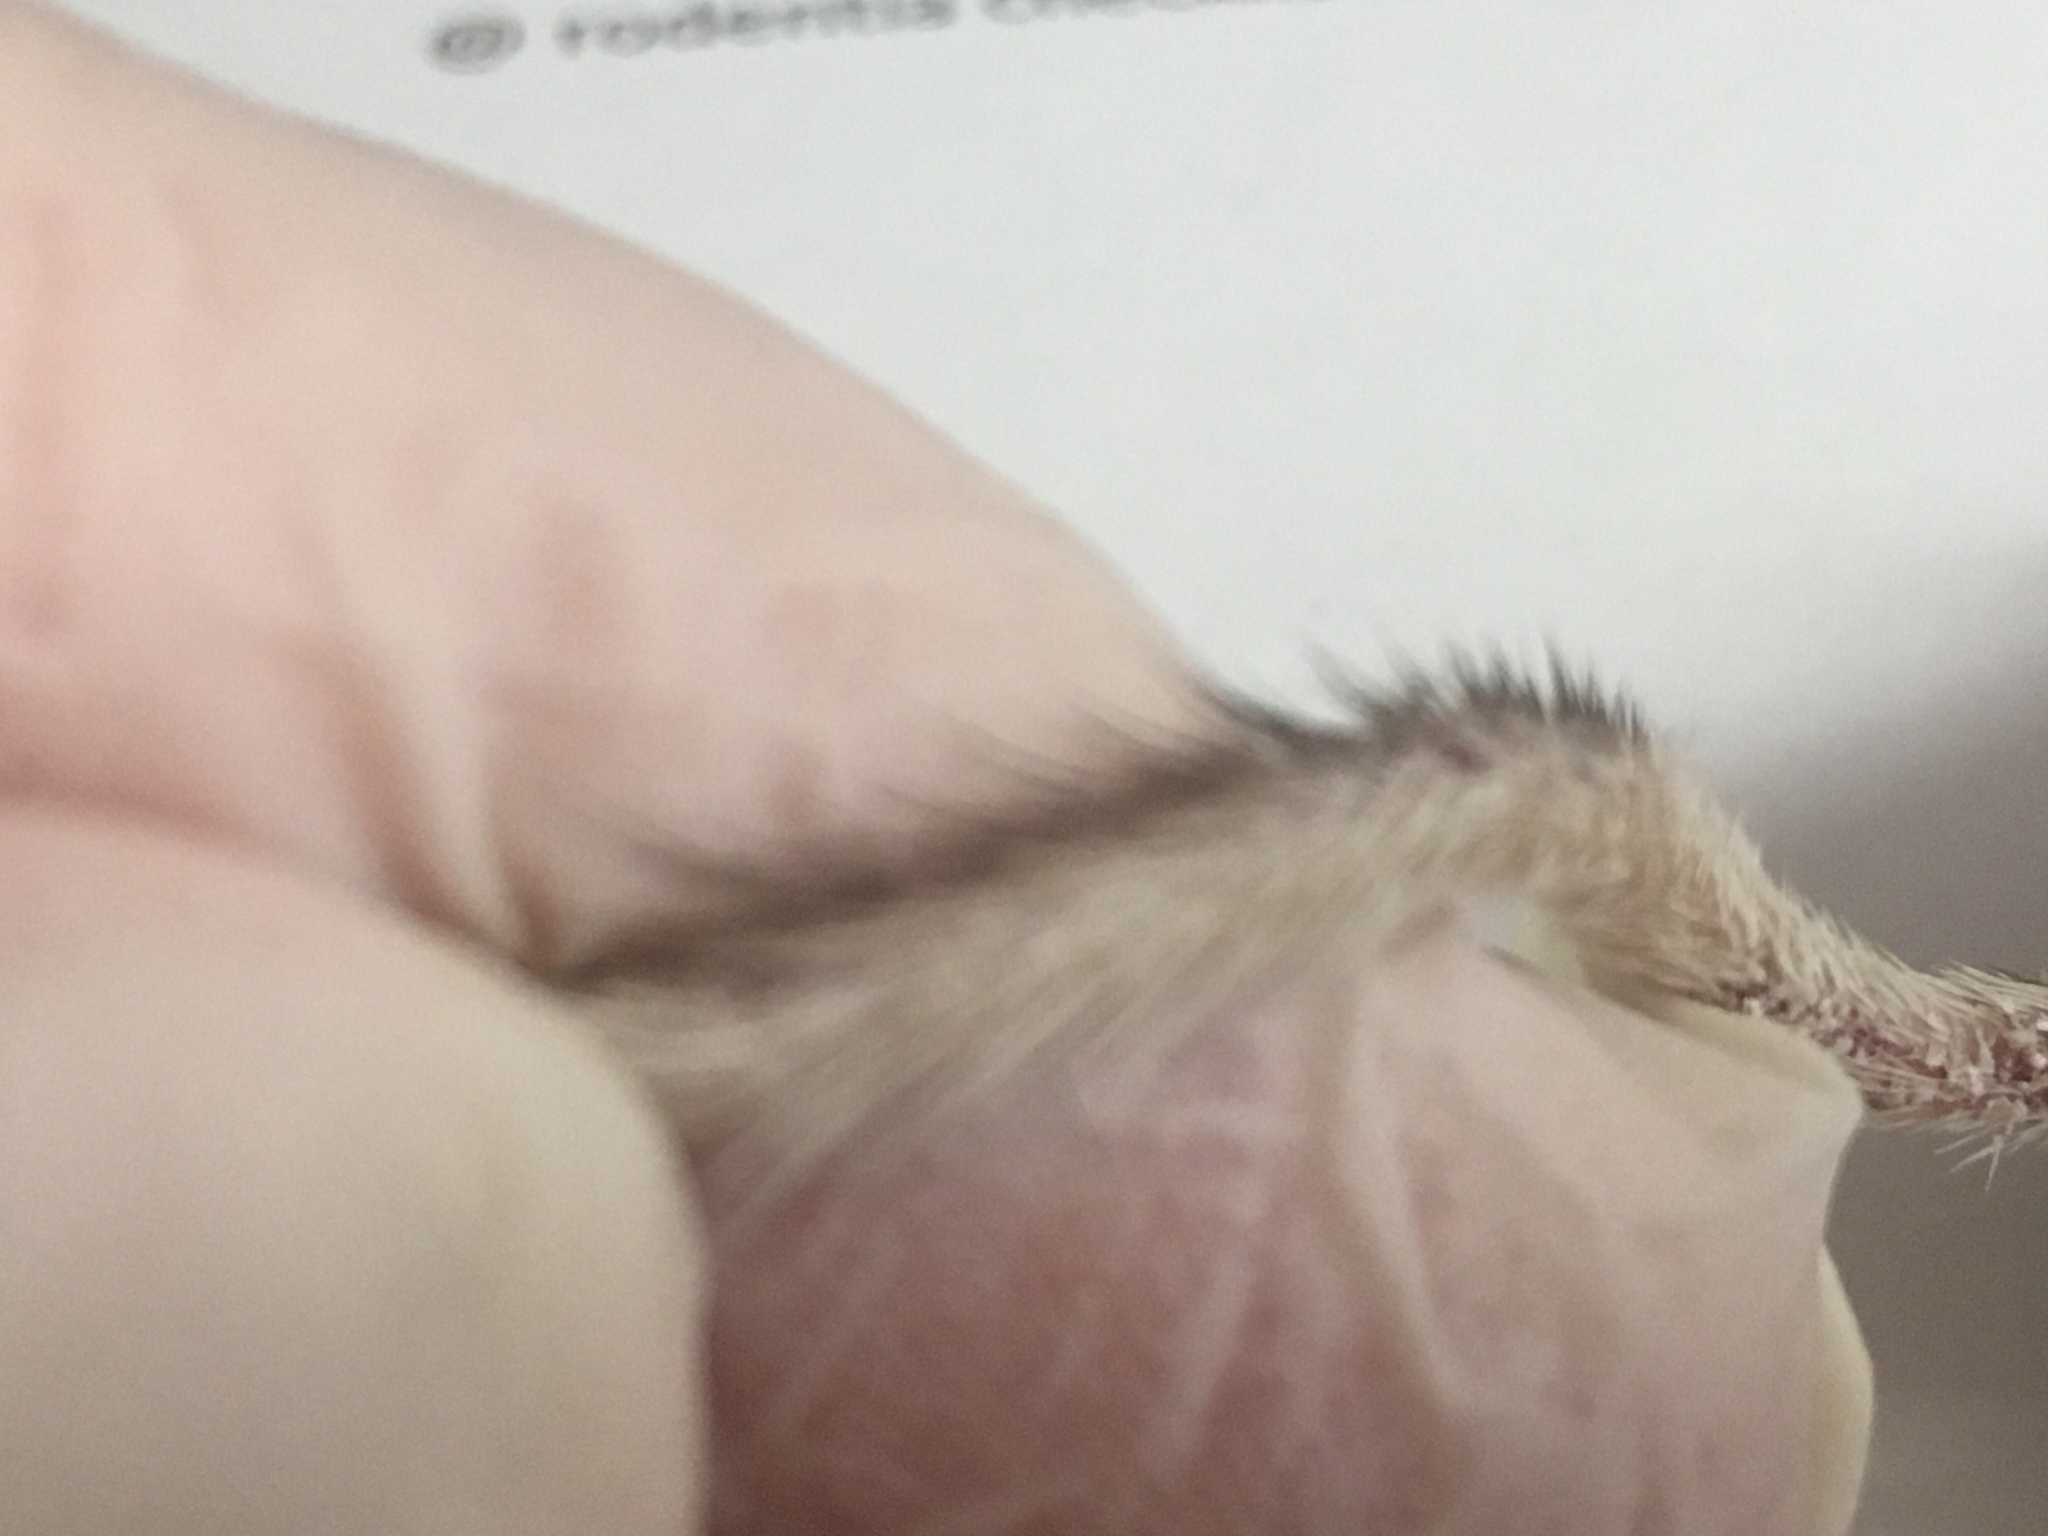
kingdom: Animalia
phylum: Chordata
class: Mammalia
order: Rodentia
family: Heteromyidae
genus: Chaetodipus
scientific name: Chaetodipus fallax
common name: San diego pocket mouse
